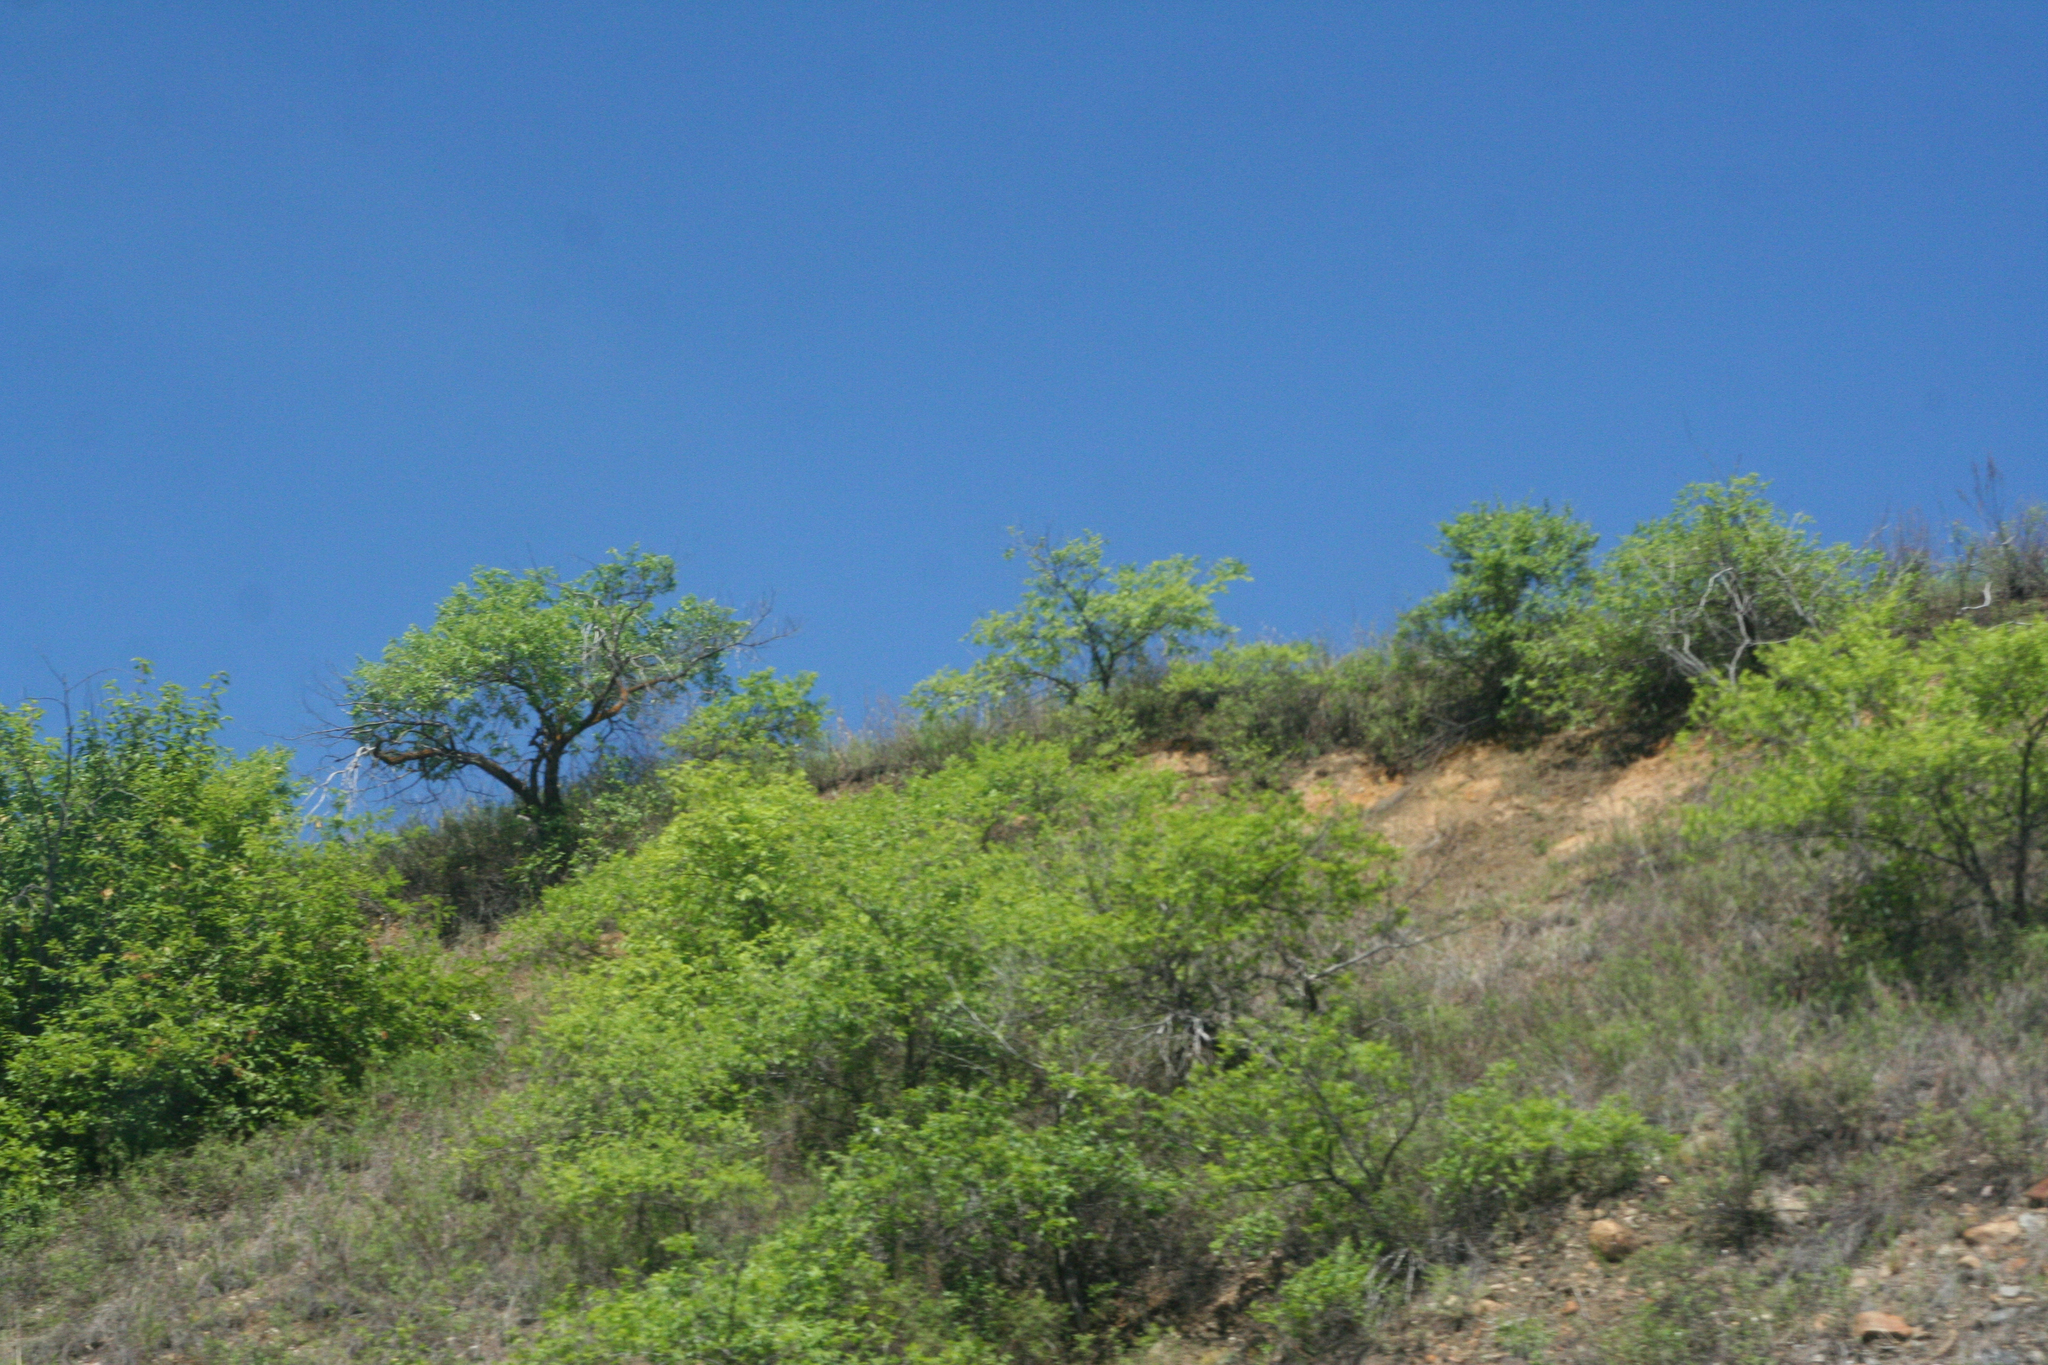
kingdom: Plantae
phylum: Tracheophyta
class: Magnoliopsida
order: Rosales
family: Ulmaceae
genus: Ulmus
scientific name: Ulmus pumila
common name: Siberian elm
